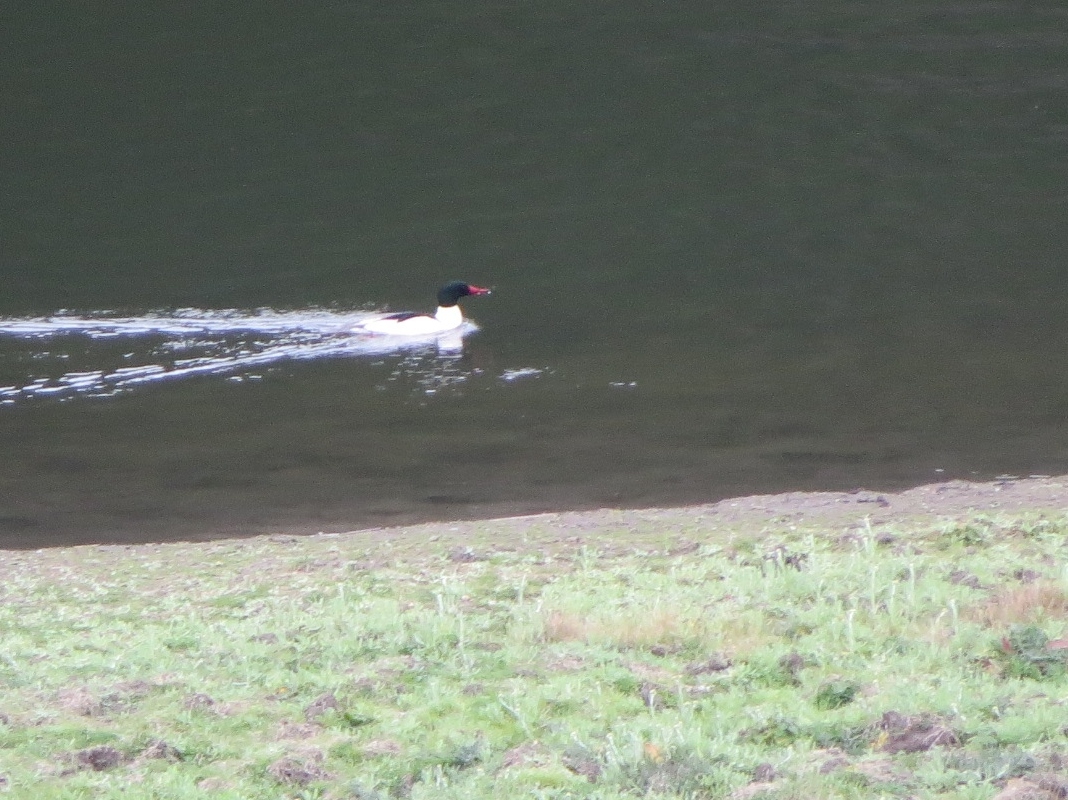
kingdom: Animalia
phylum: Chordata
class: Aves
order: Anseriformes
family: Anatidae
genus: Mergus
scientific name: Mergus merganser
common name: Common merganser
